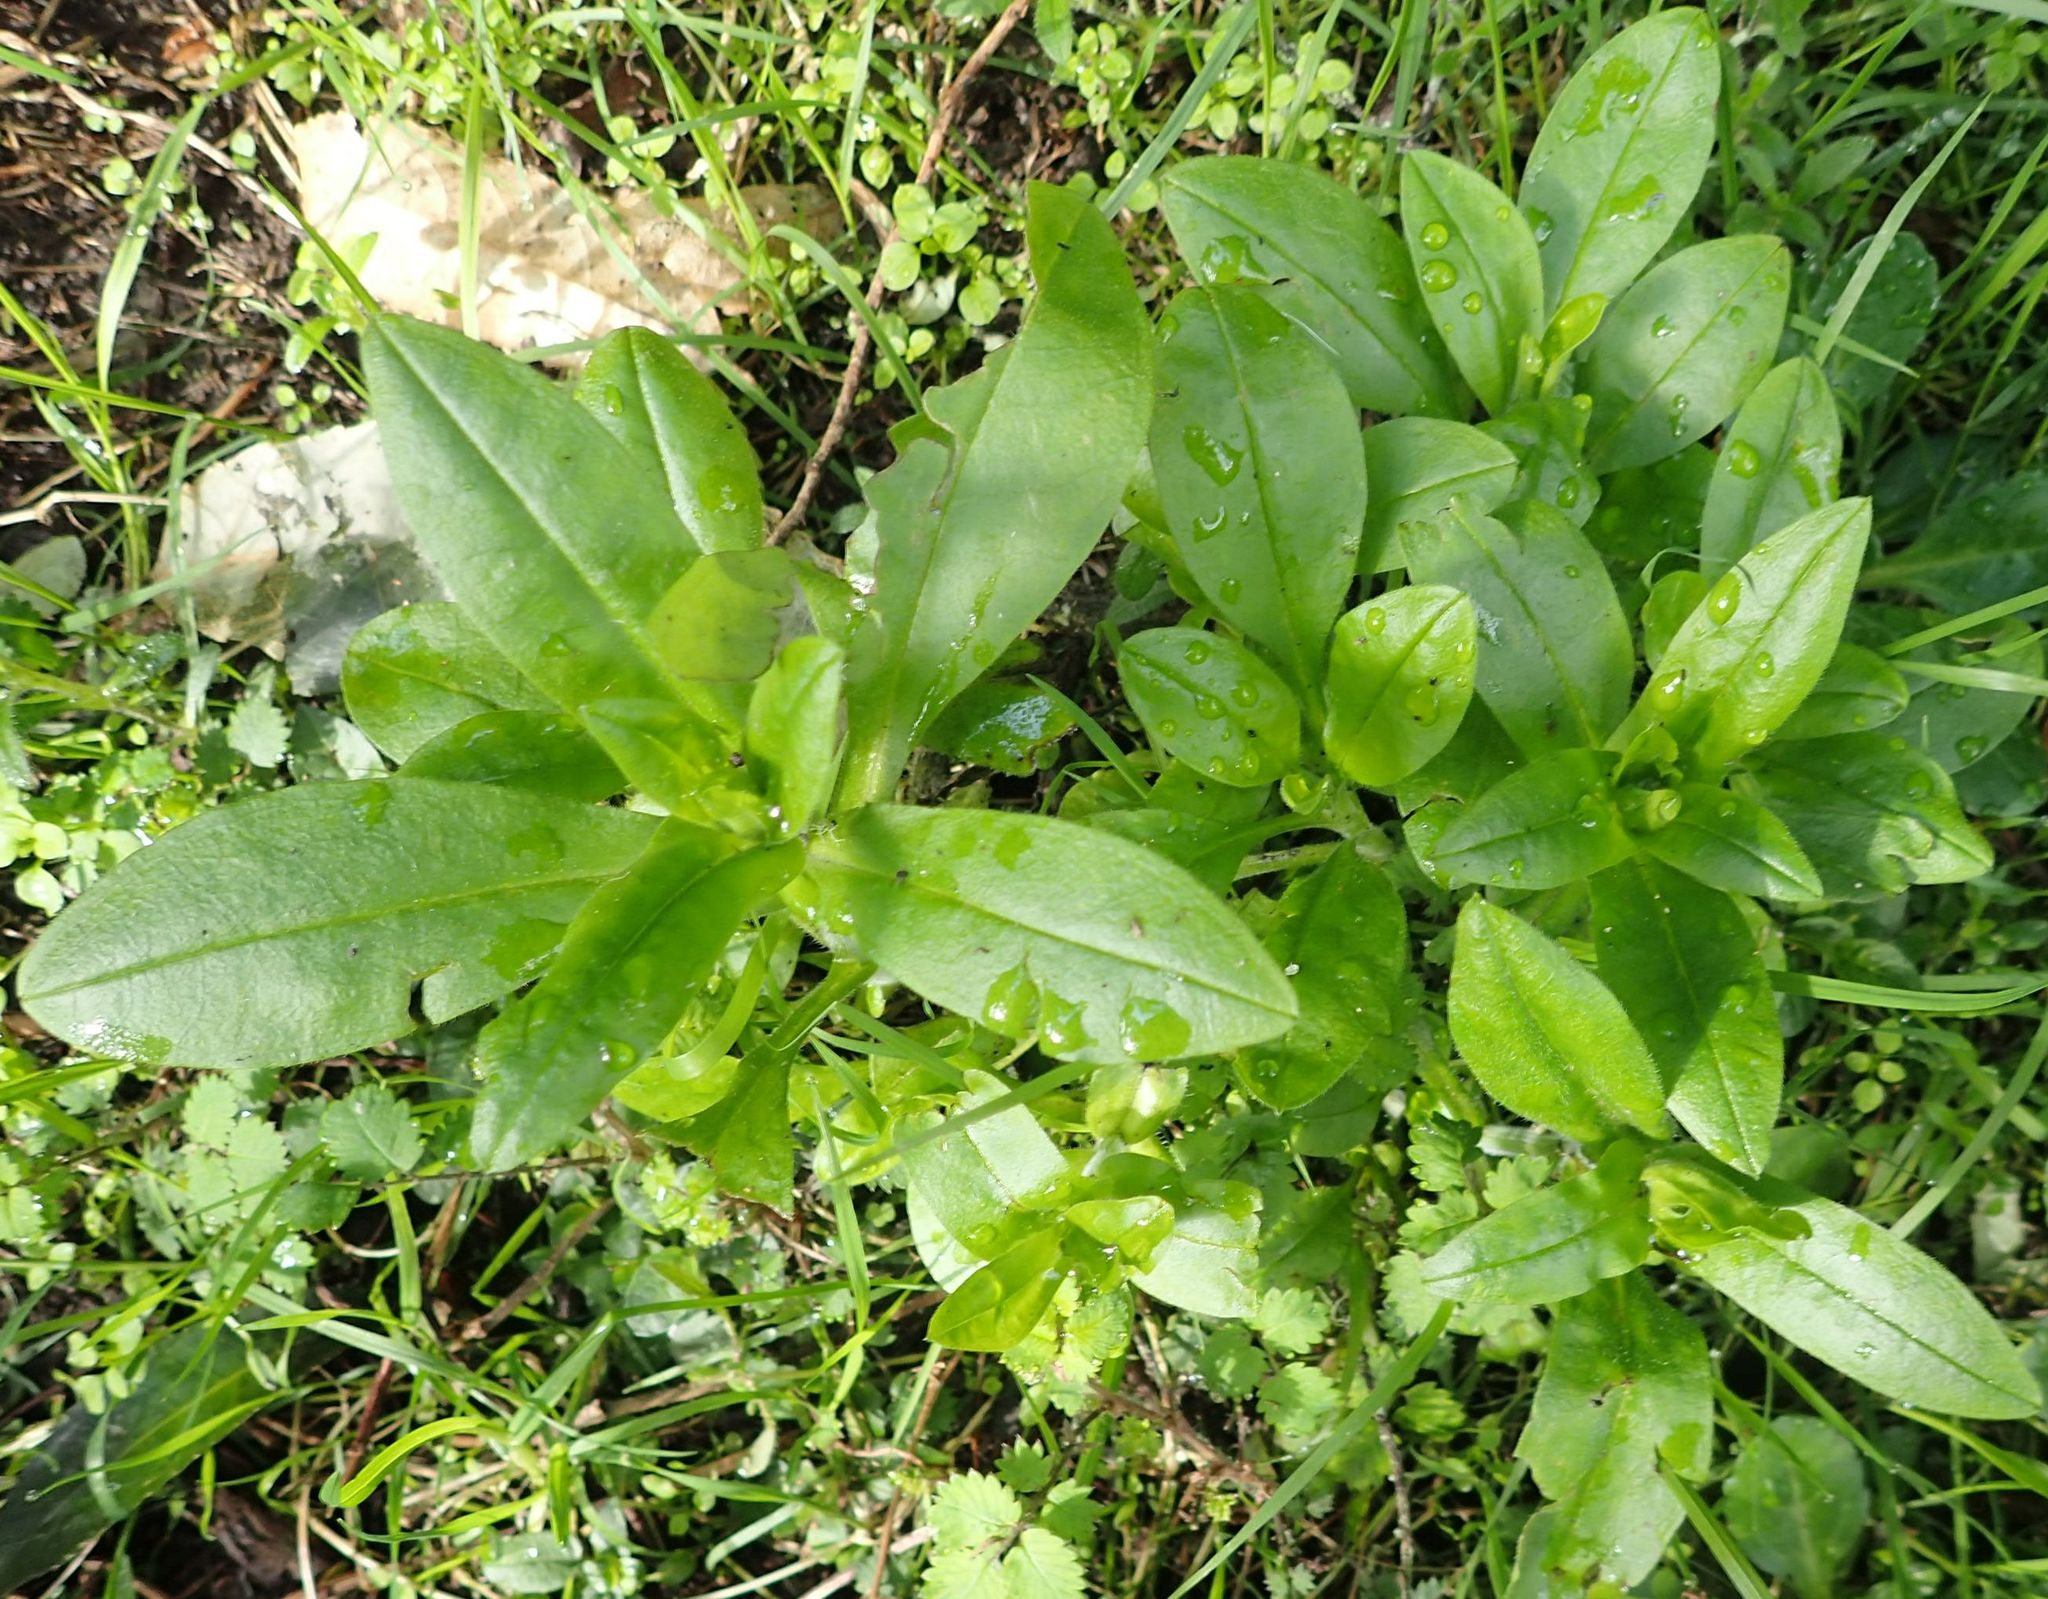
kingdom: Plantae
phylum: Tracheophyta
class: Magnoliopsida
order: Boraginales
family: Boraginaceae
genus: Myosotis
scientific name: Myosotis sylvatica
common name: Wood forget-me-not
